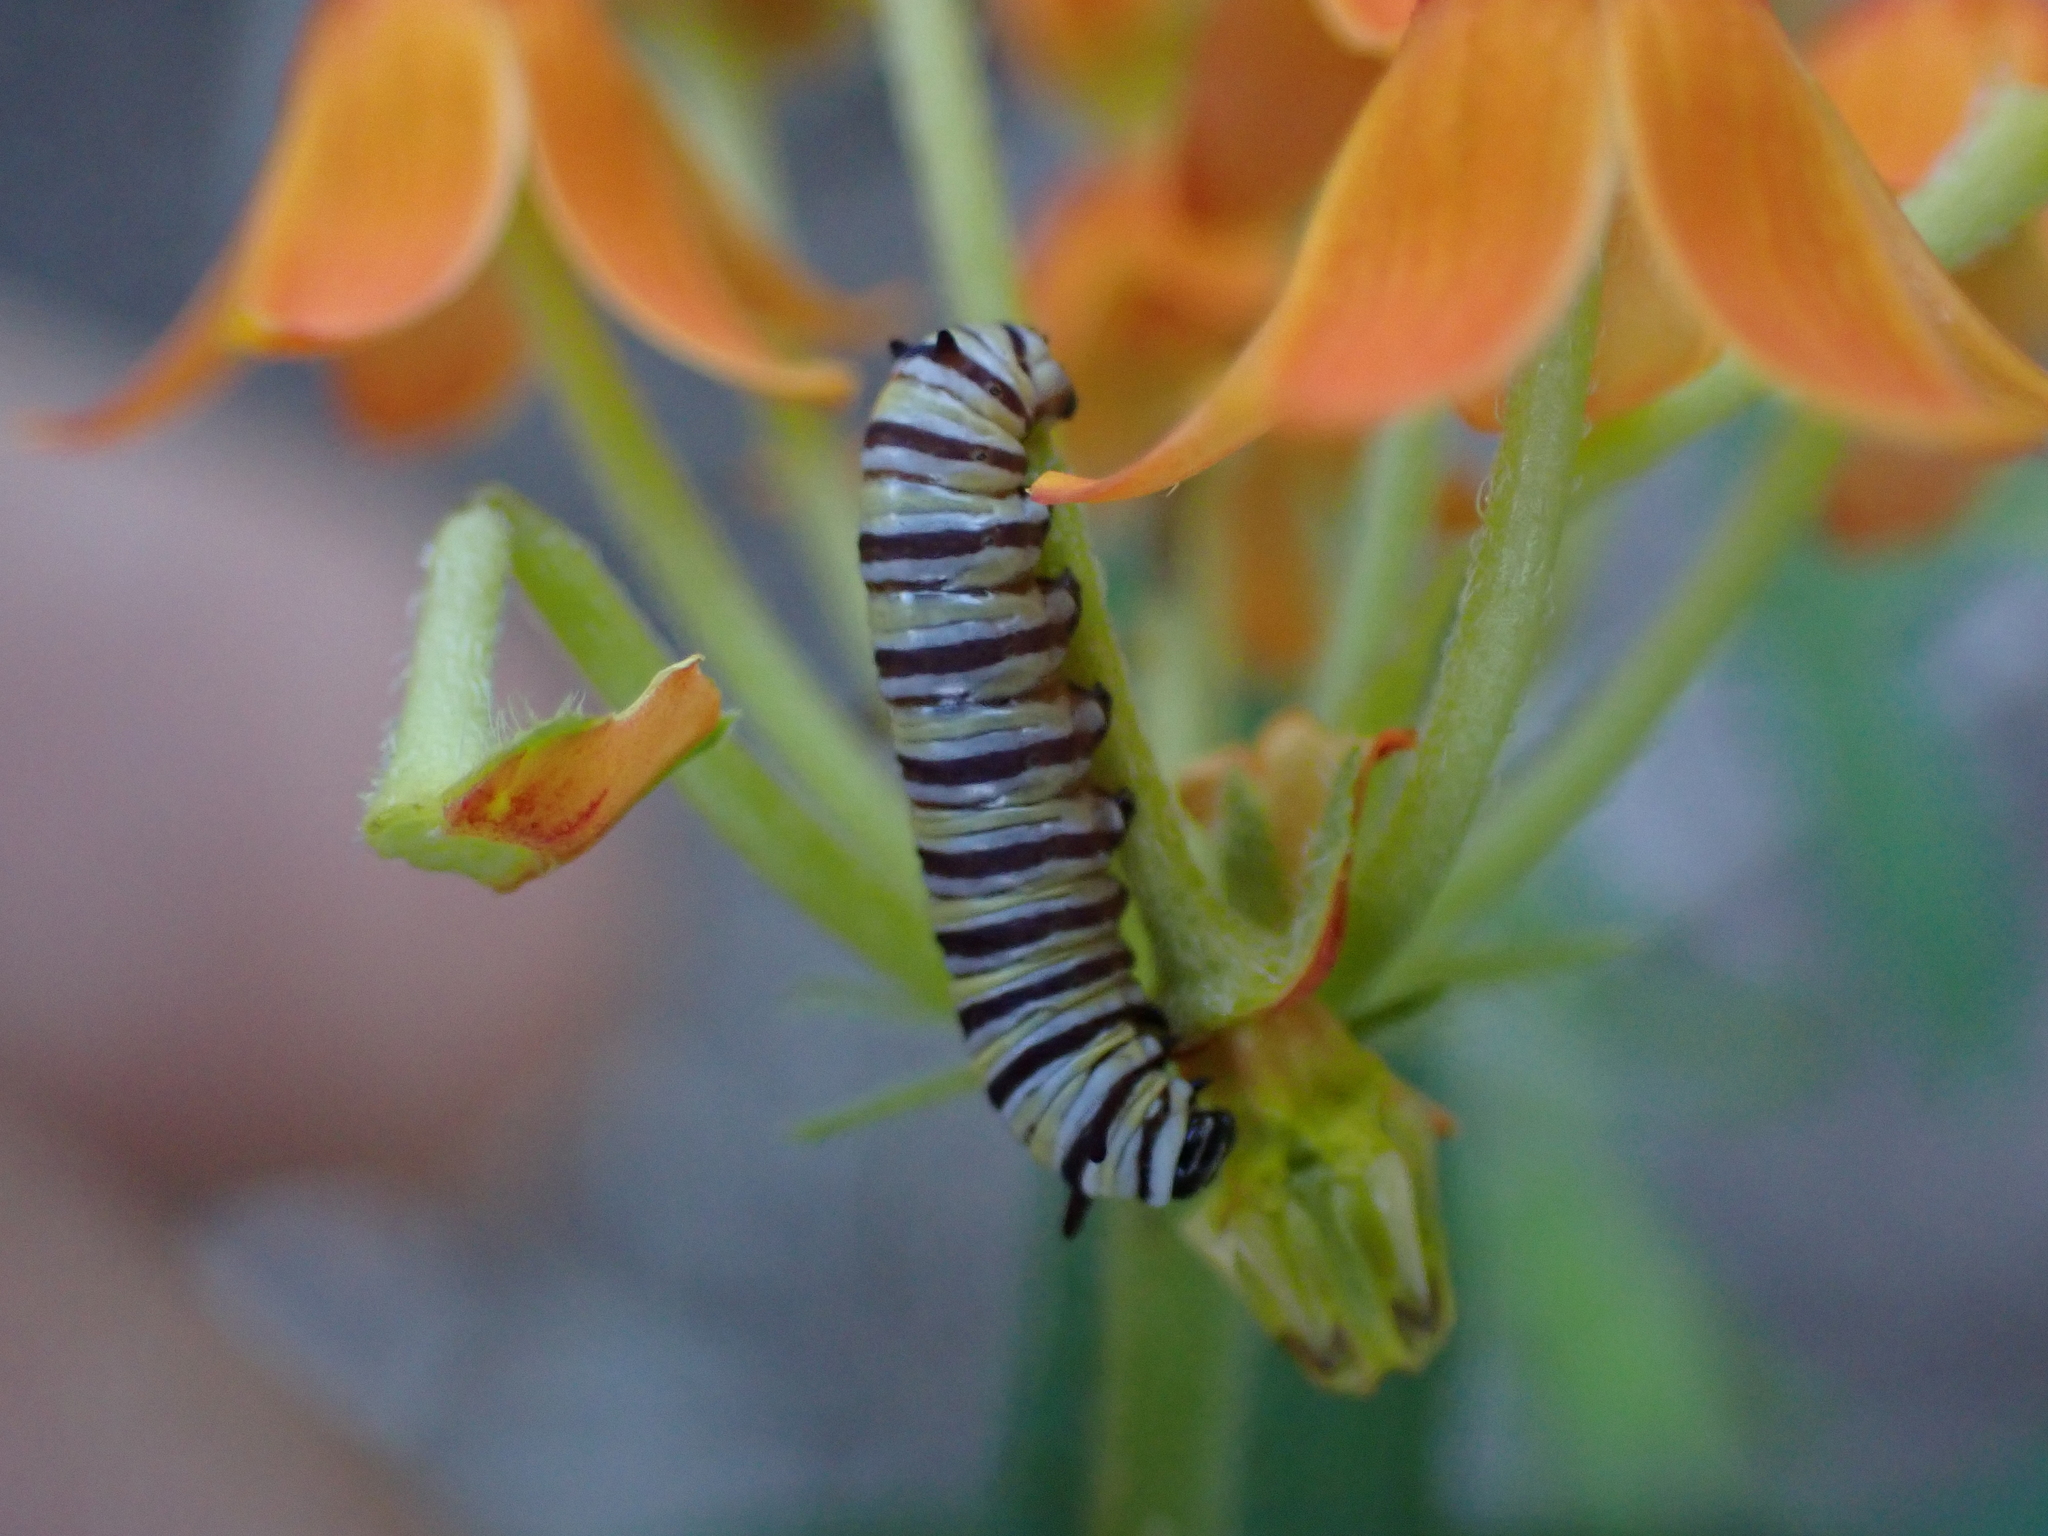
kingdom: Animalia
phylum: Arthropoda
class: Insecta
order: Lepidoptera
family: Nymphalidae
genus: Danaus
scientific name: Danaus plexippus
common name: Monarch
